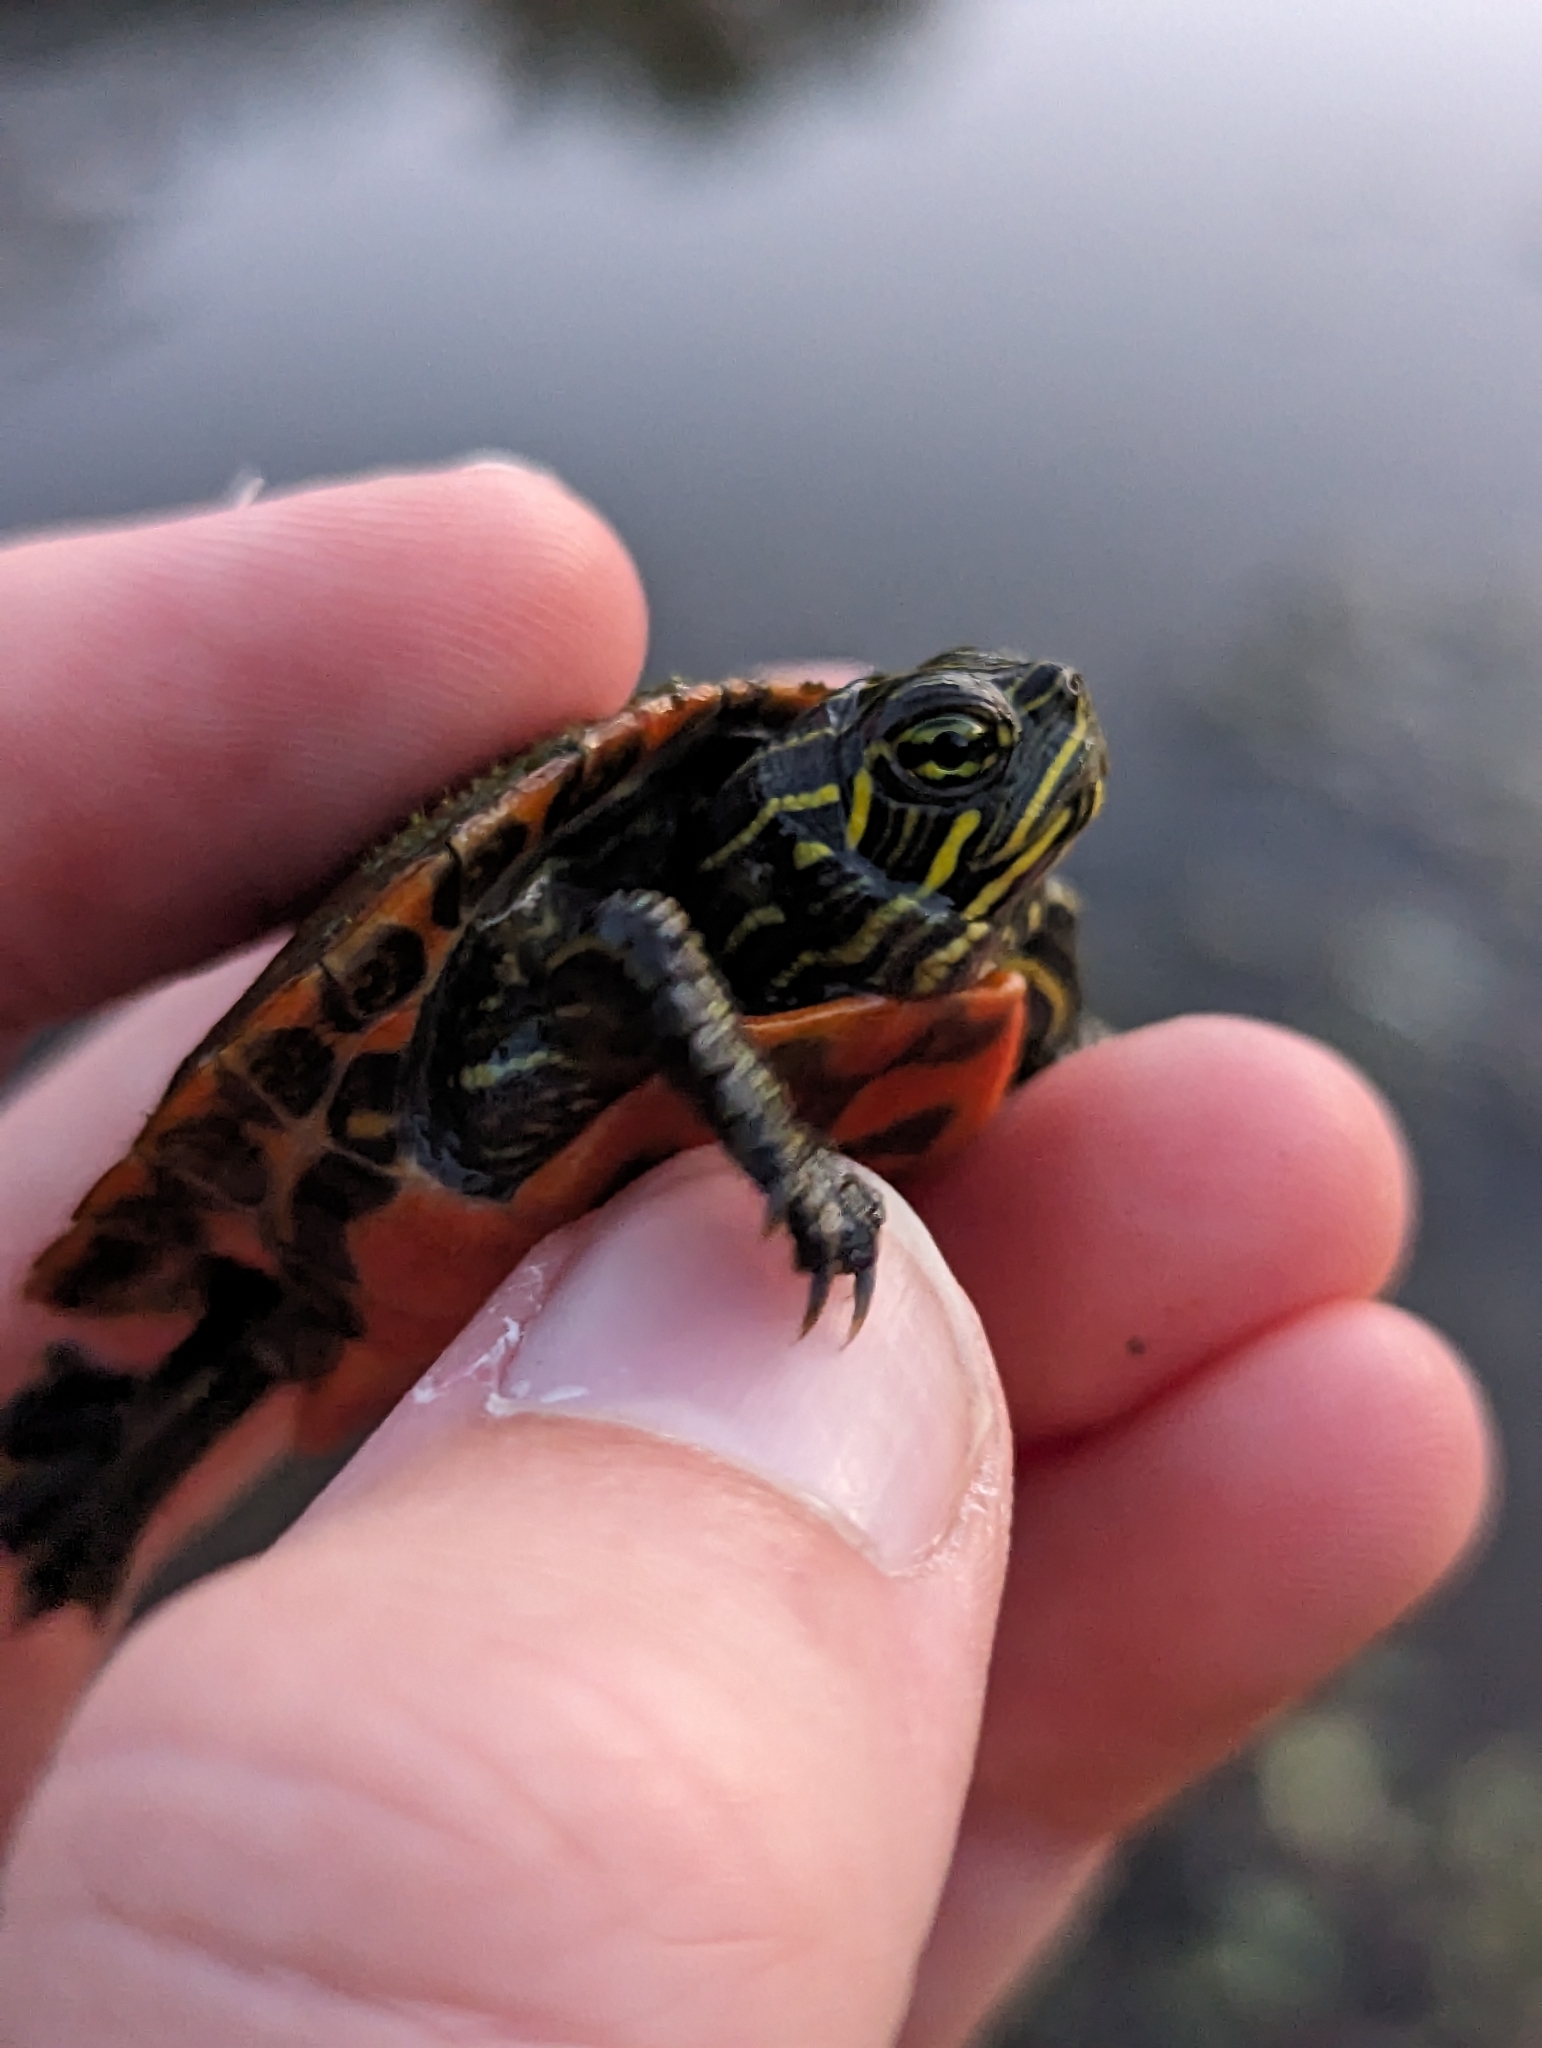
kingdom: Animalia
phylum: Chordata
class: Testudines
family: Emydidae
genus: Pseudemys
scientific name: Pseudemys rubriventris
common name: American red-bellied turtle
